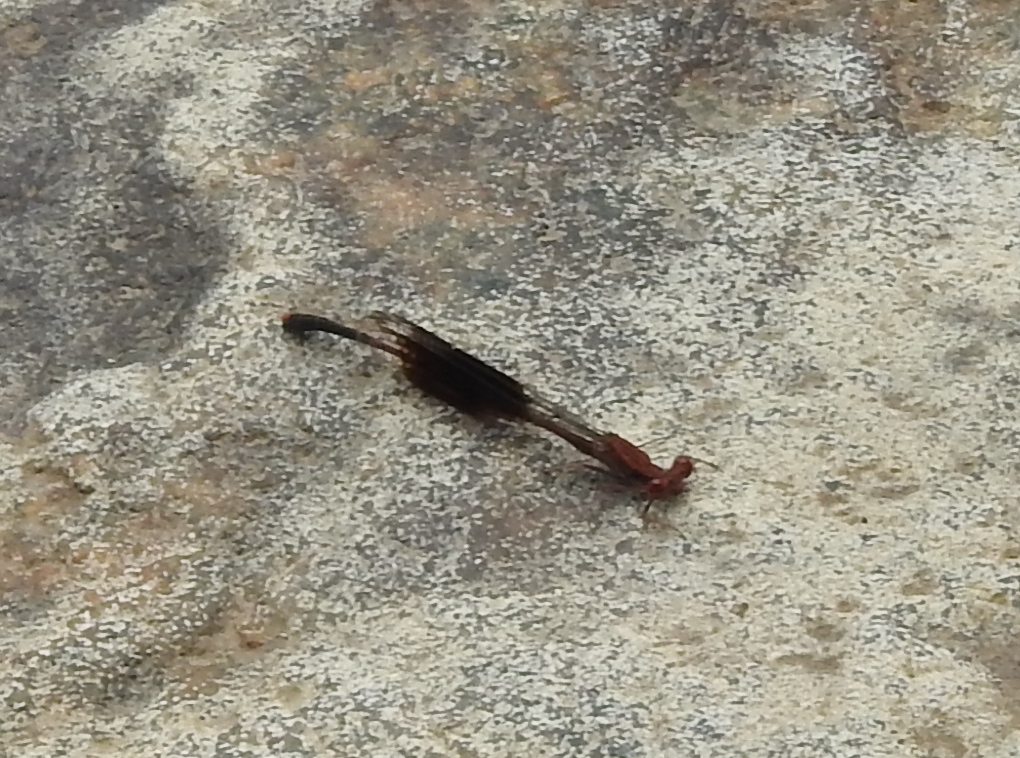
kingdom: Animalia
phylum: Arthropoda
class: Insecta
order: Odonata
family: Platycnemididae
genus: Disparoneura
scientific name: Disparoneura quadrimaculata
